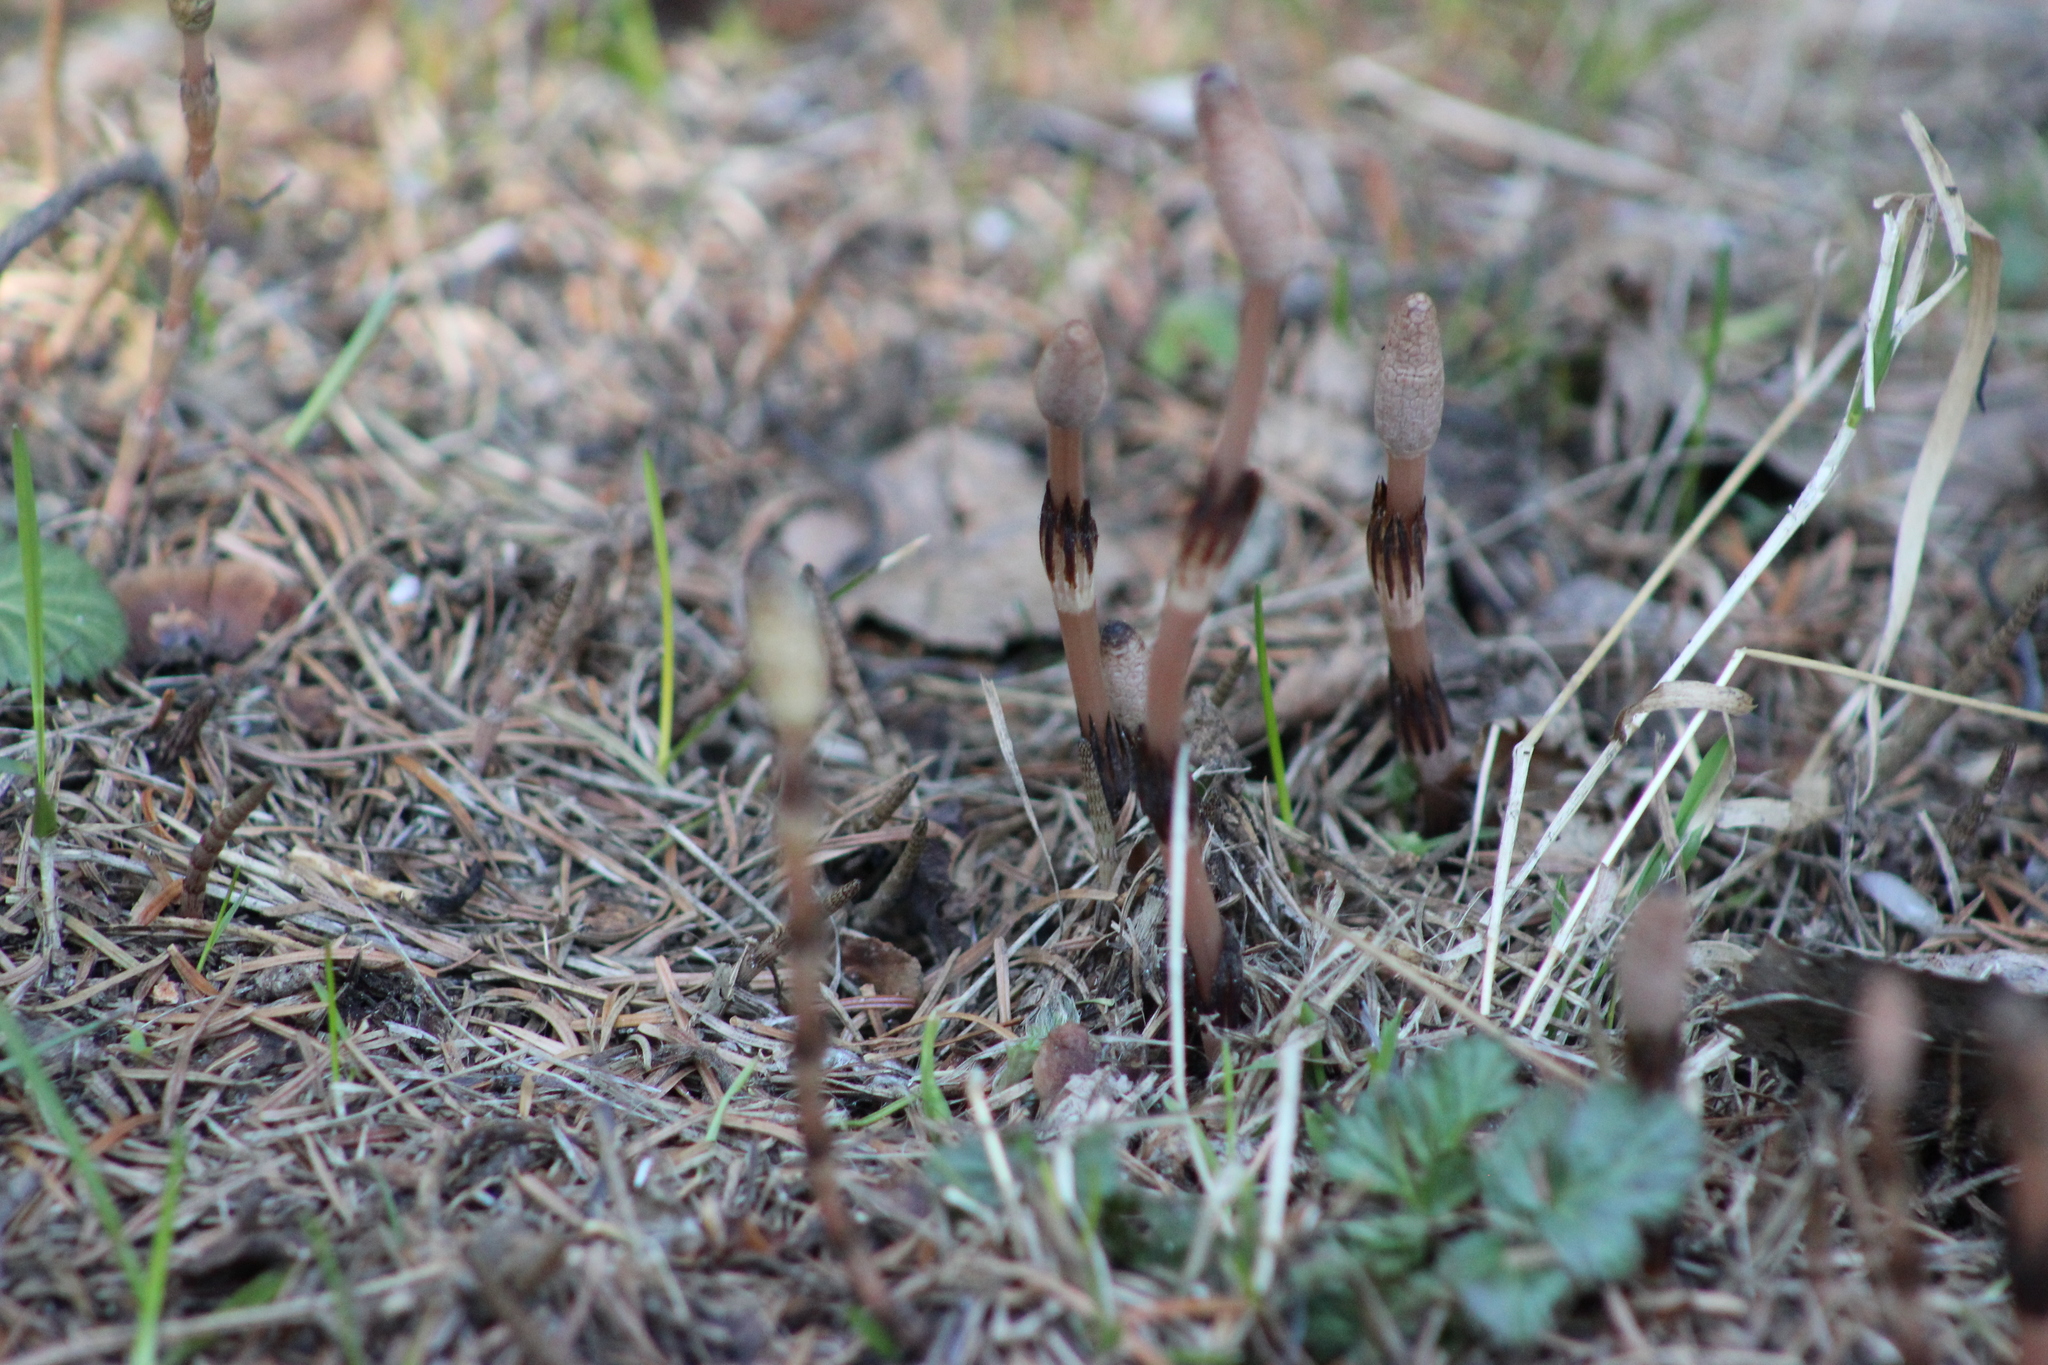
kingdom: Plantae
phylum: Tracheophyta
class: Polypodiopsida
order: Equisetales
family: Equisetaceae
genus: Equisetum
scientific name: Equisetum arvense
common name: Field horsetail
